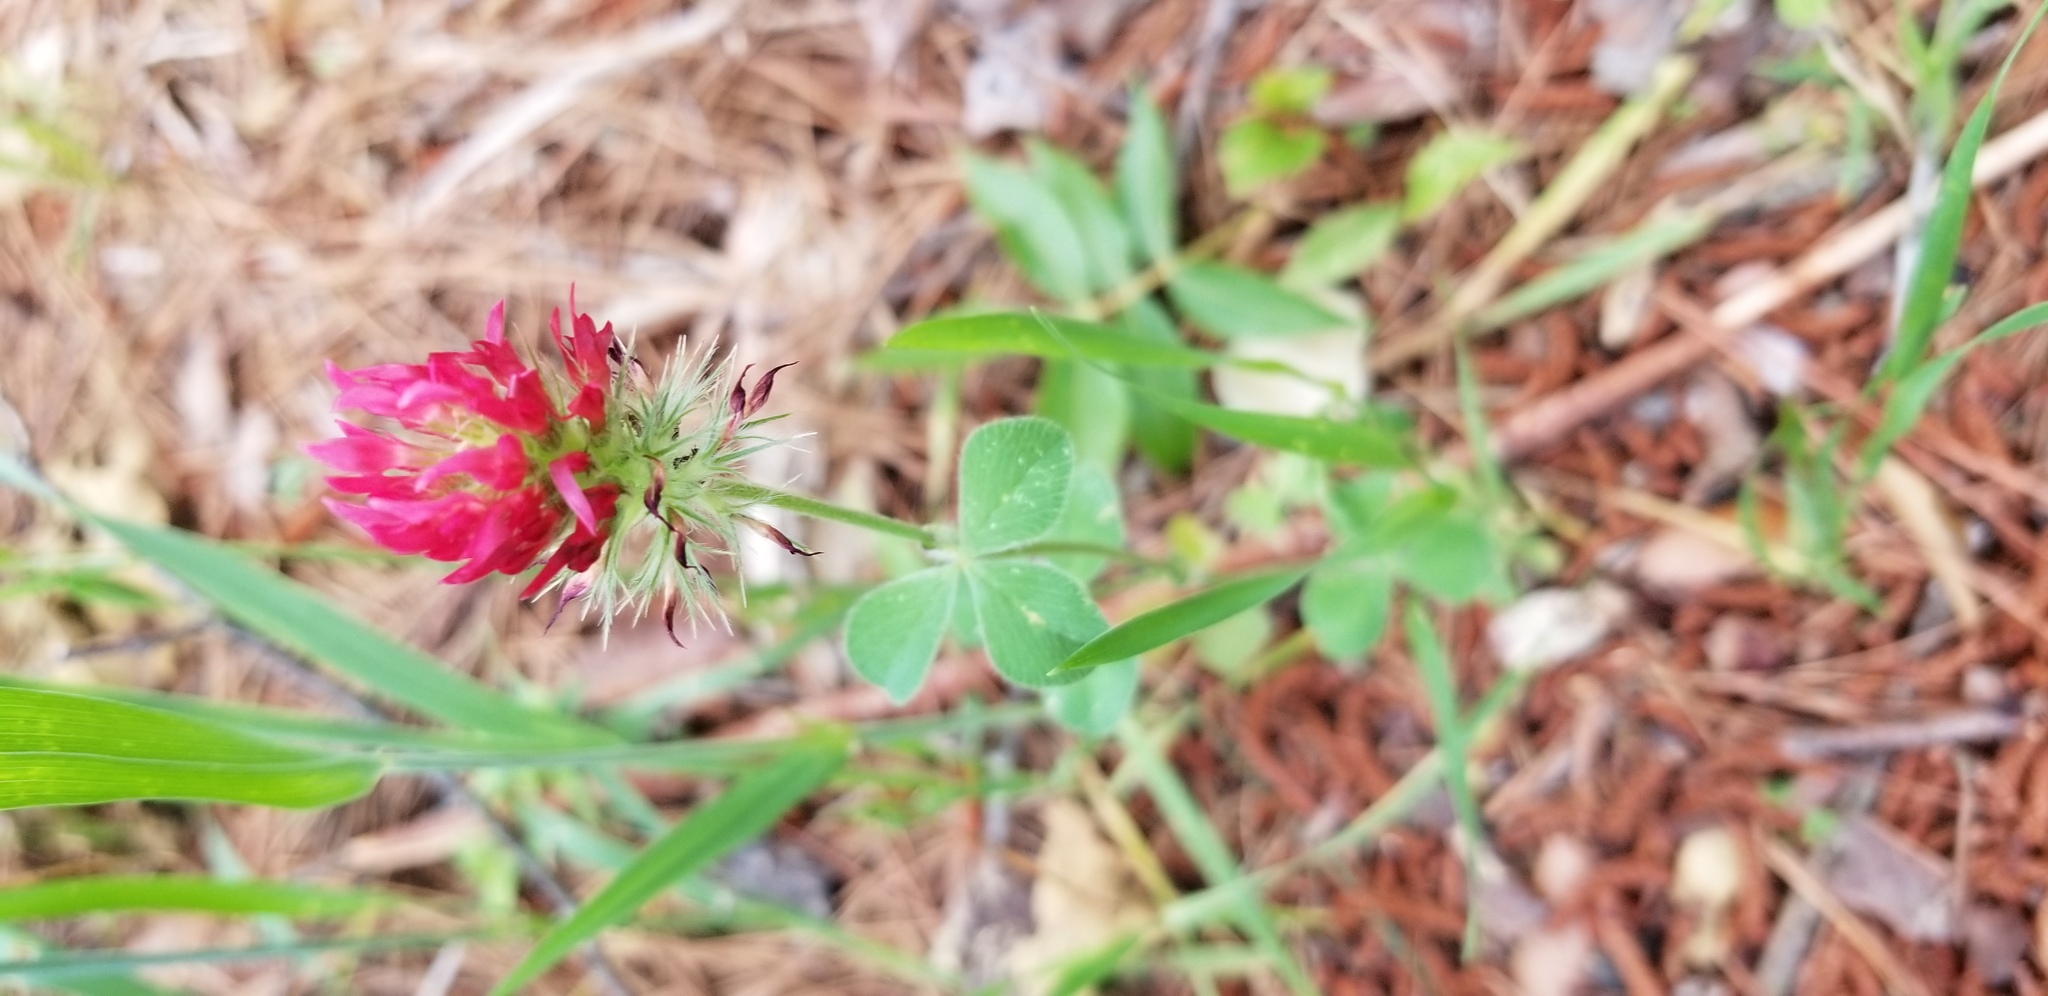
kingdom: Plantae
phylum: Tracheophyta
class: Magnoliopsida
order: Fabales
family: Fabaceae
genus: Trifolium
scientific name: Trifolium incarnatum
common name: Crimson clover
